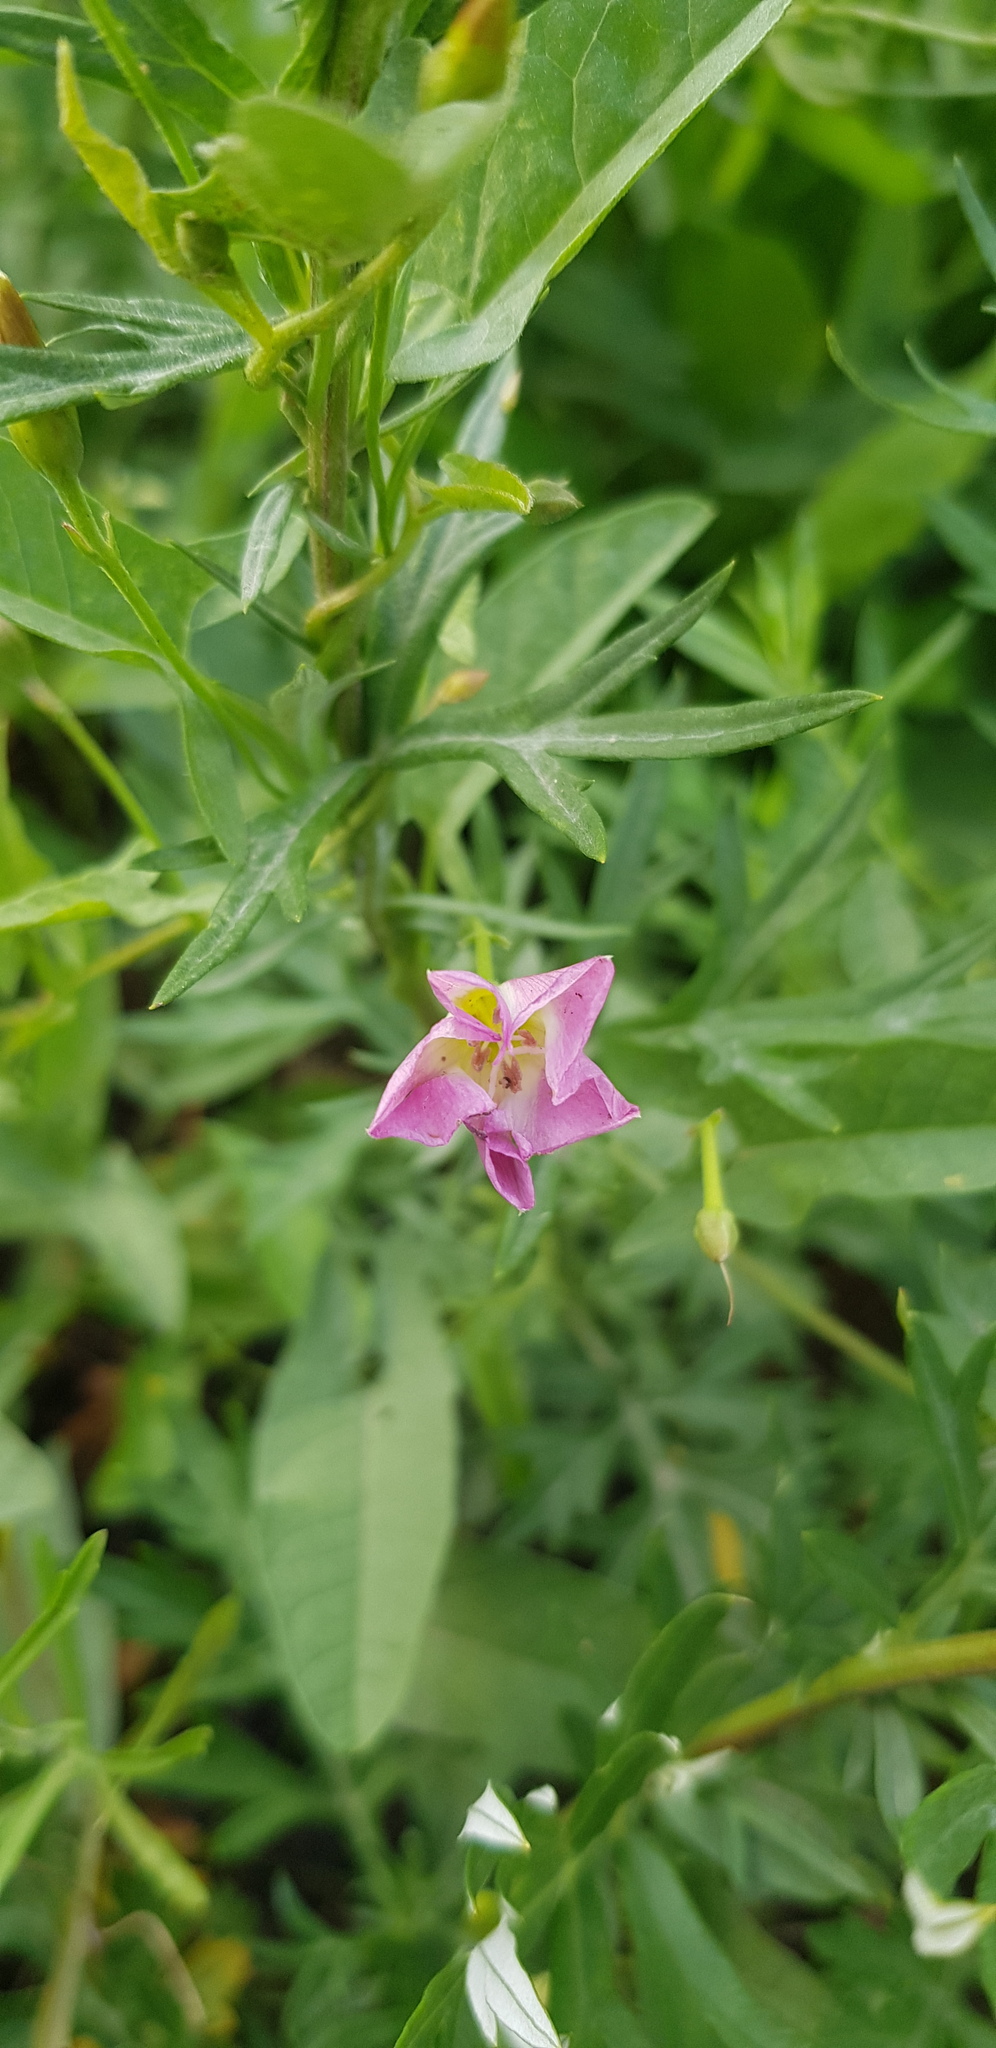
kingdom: Plantae
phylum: Tracheophyta
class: Magnoliopsida
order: Solanales
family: Convolvulaceae
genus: Convolvulus
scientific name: Convolvulus arvensis
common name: Field bindweed
